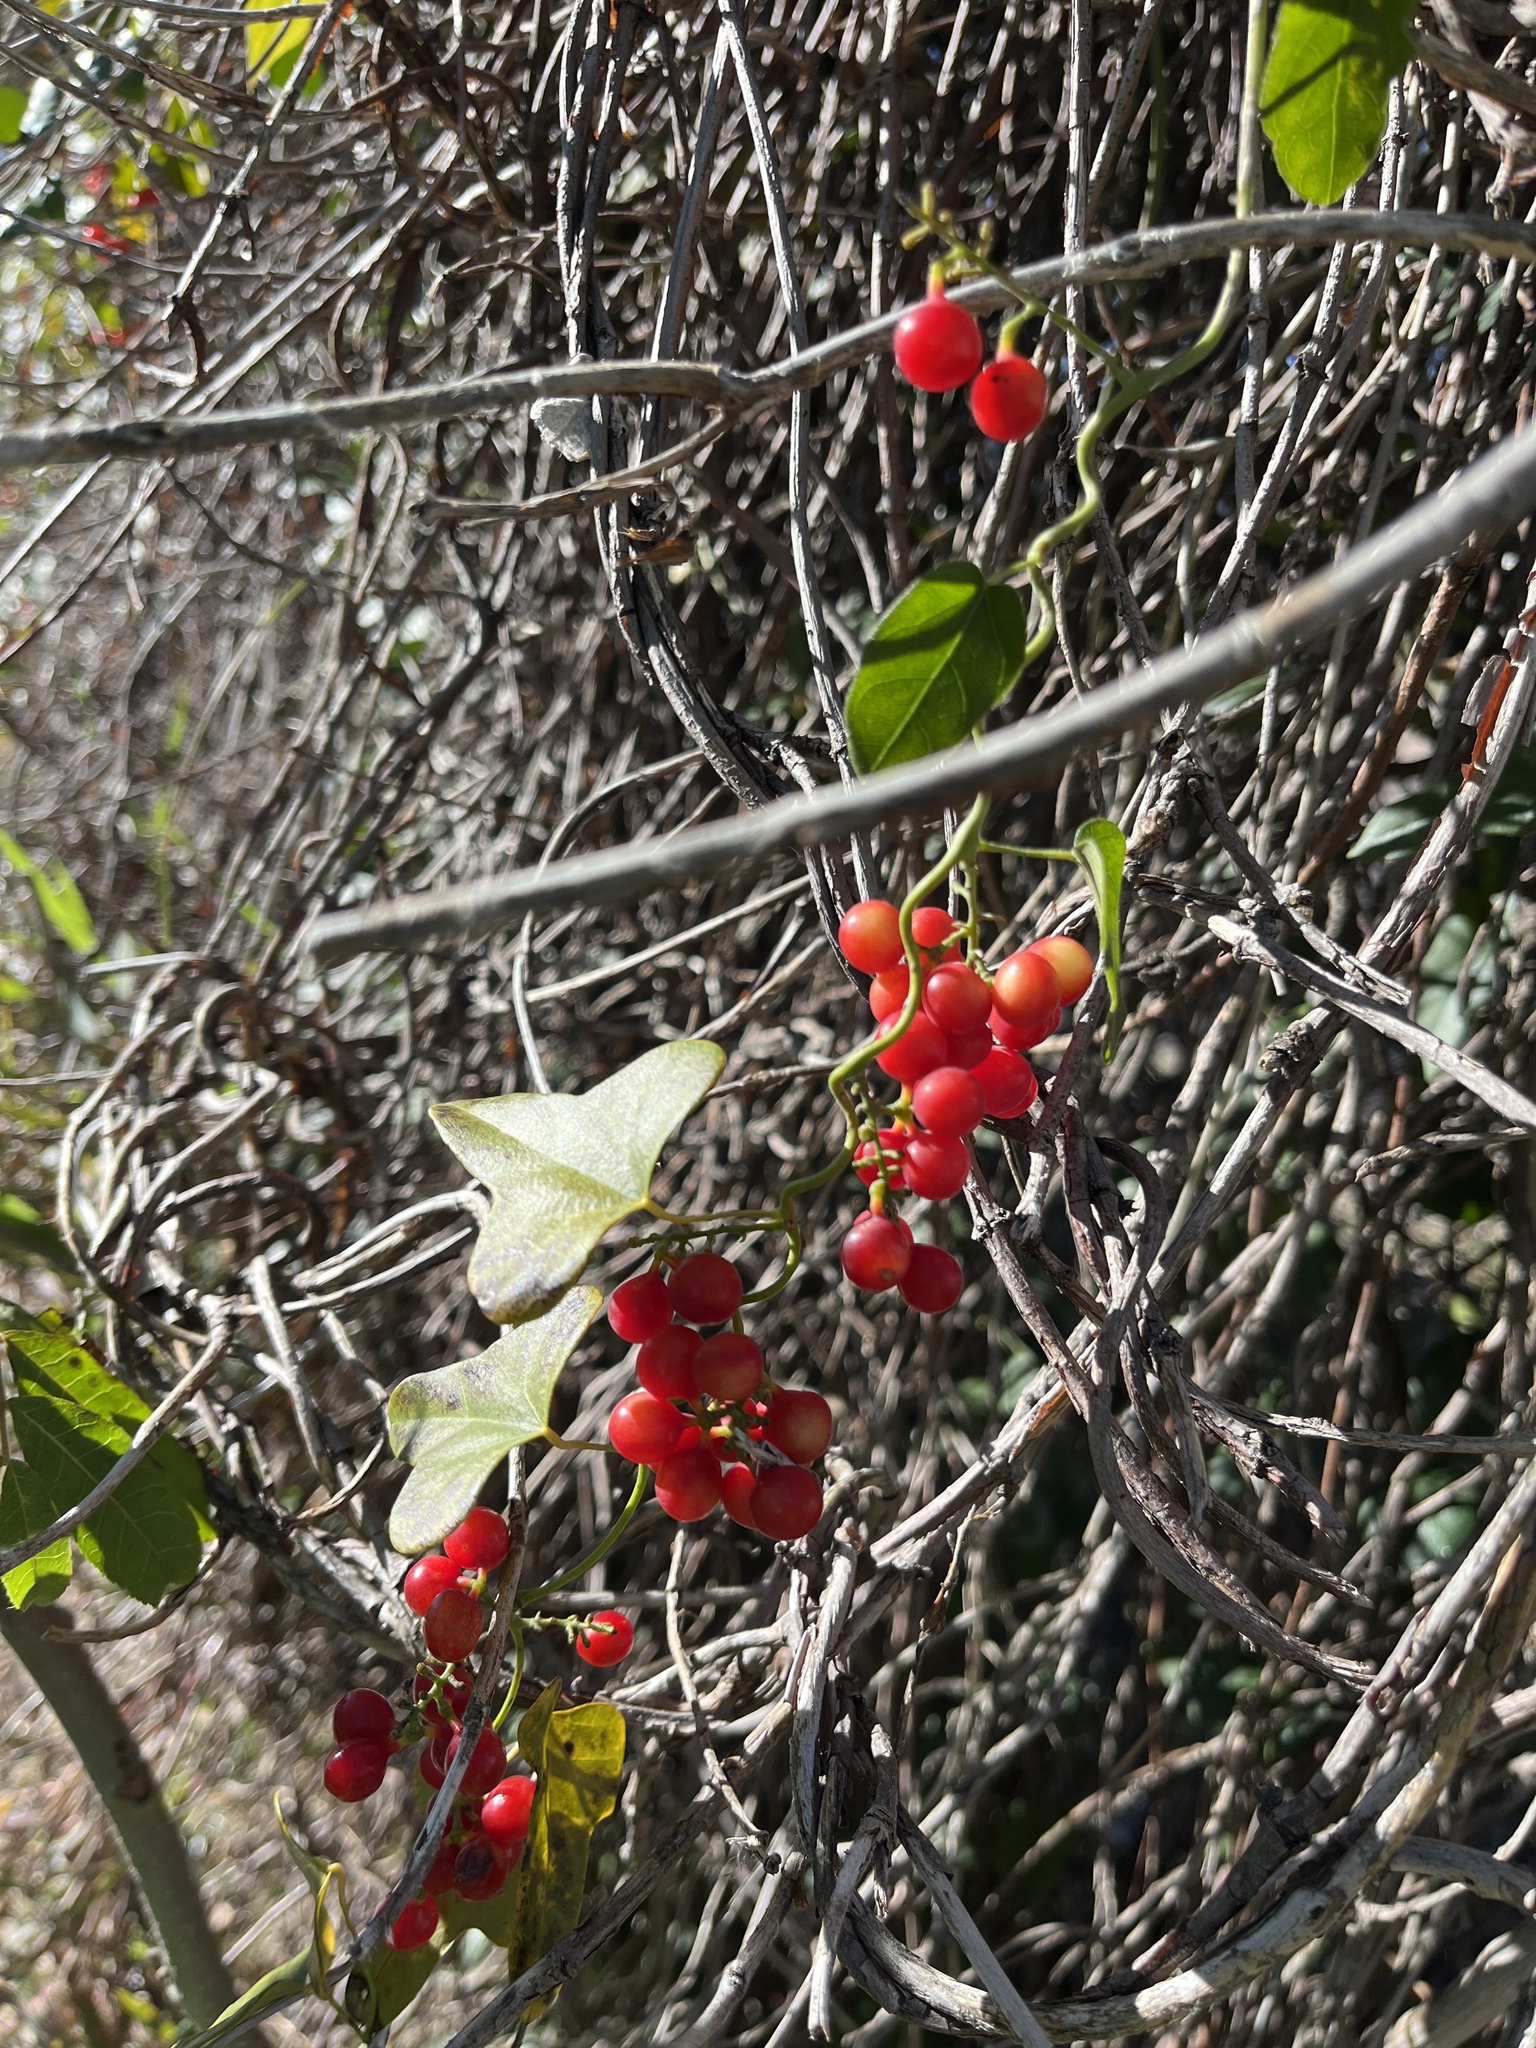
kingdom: Plantae
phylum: Tracheophyta
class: Magnoliopsida
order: Ranunculales
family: Menispermaceae
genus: Cocculus
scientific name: Cocculus carolinus
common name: Carolina moonseed
